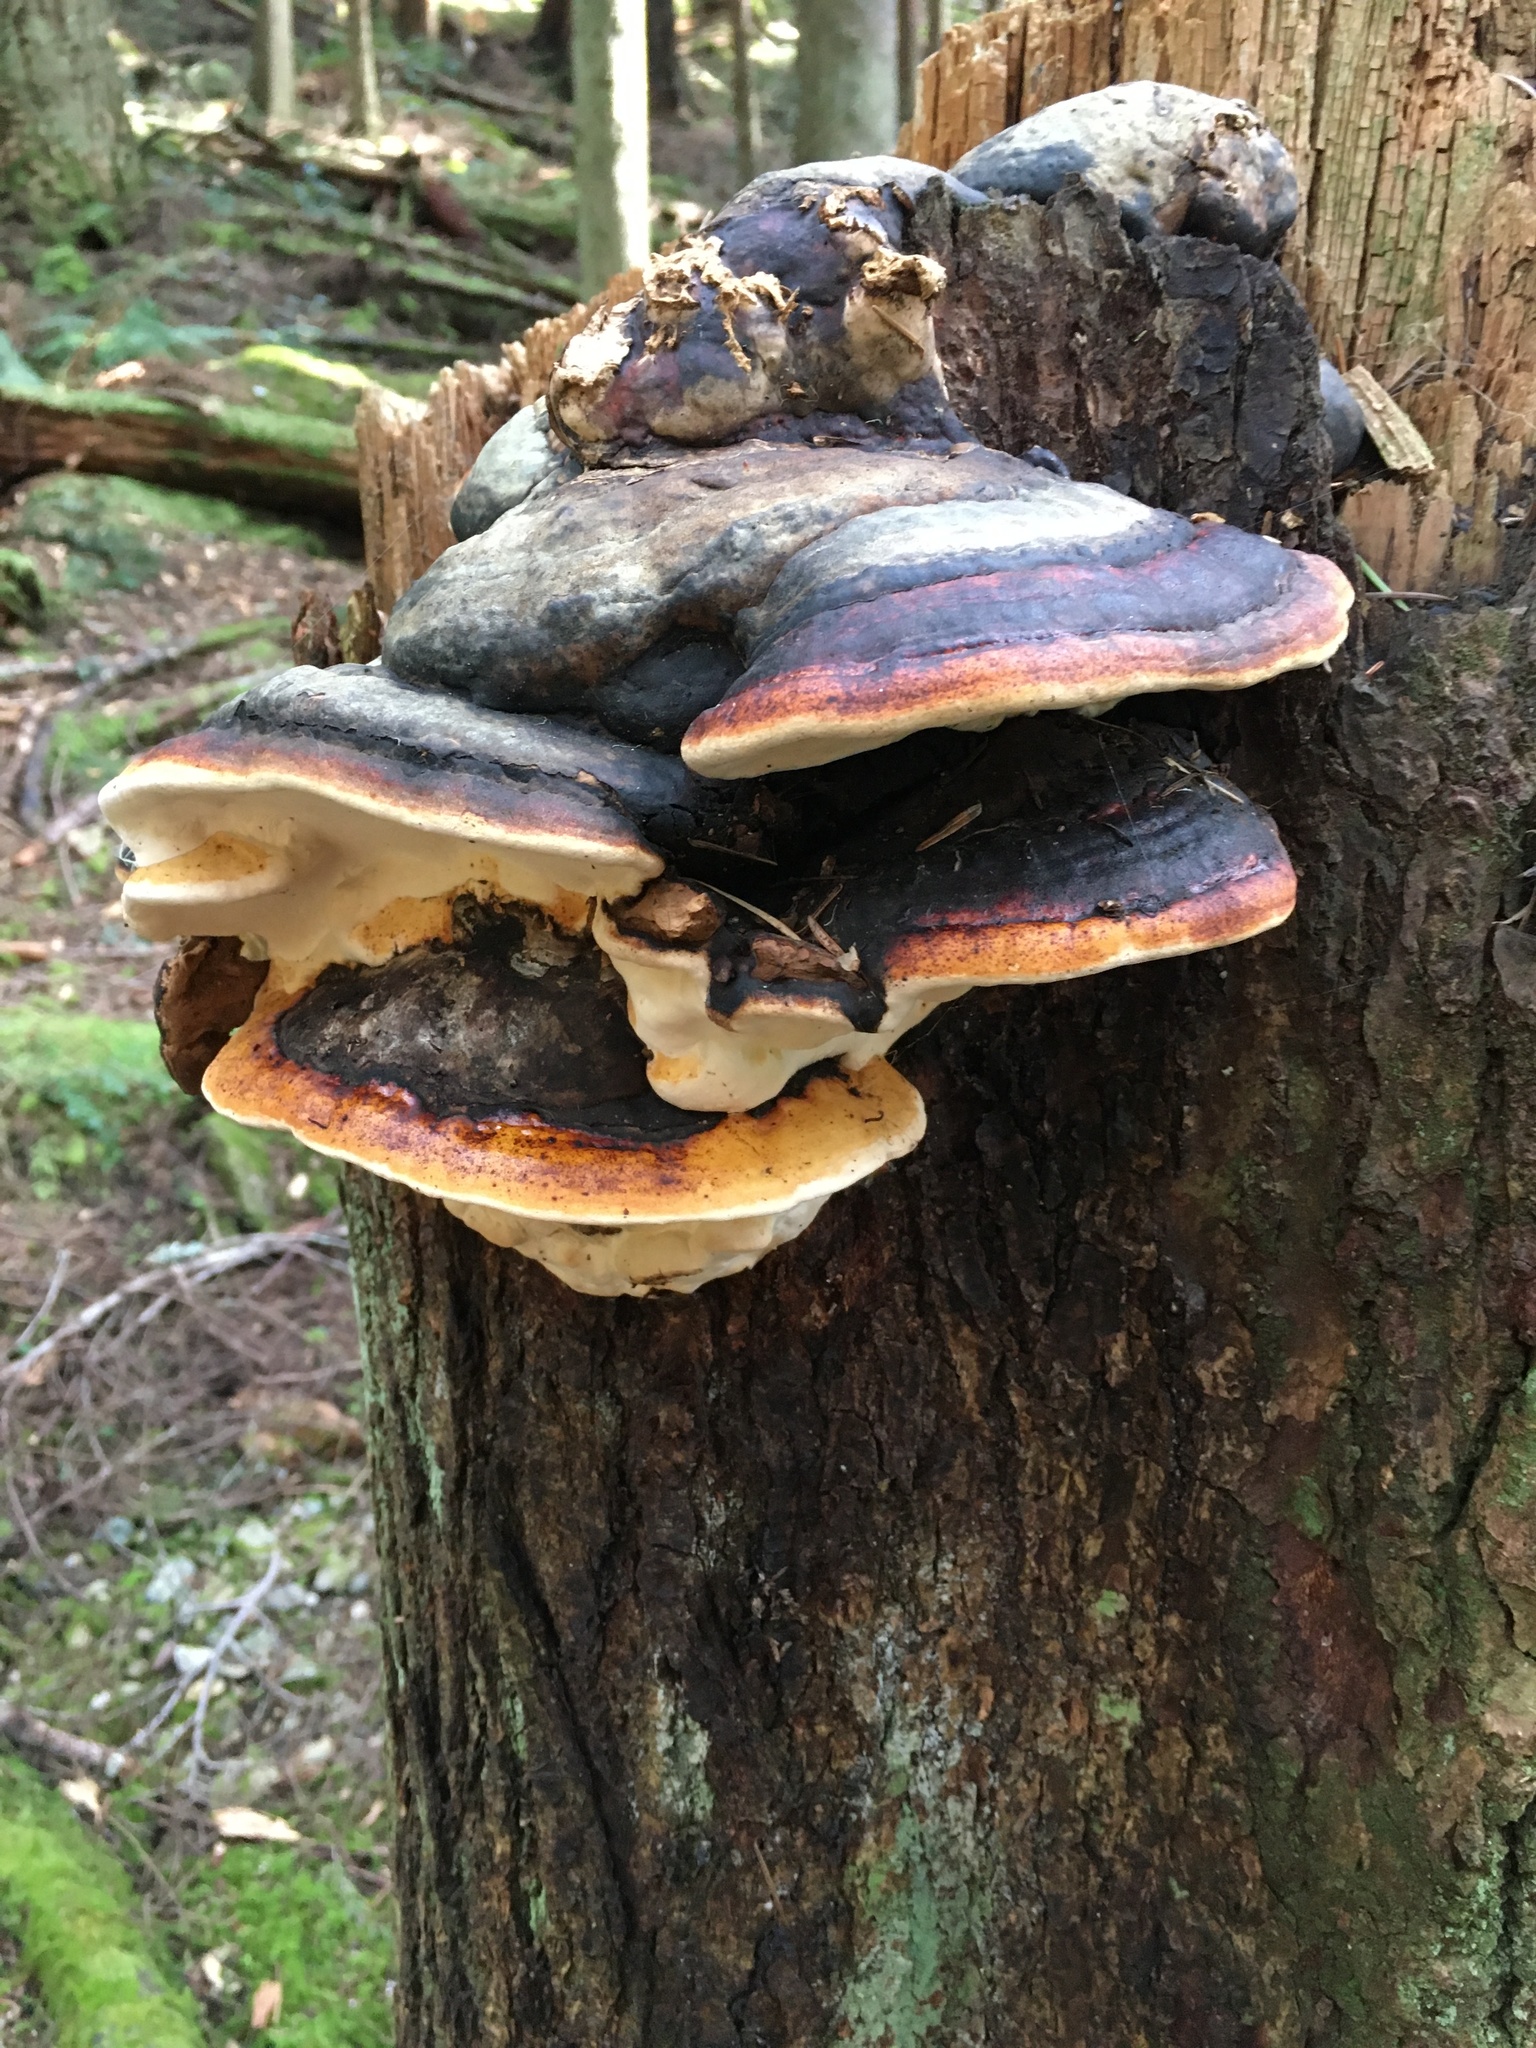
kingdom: Fungi
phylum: Basidiomycota
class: Agaricomycetes
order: Polyporales
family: Fomitopsidaceae
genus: Fomitopsis
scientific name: Fomitopsis mounceae
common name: Northern red belt
